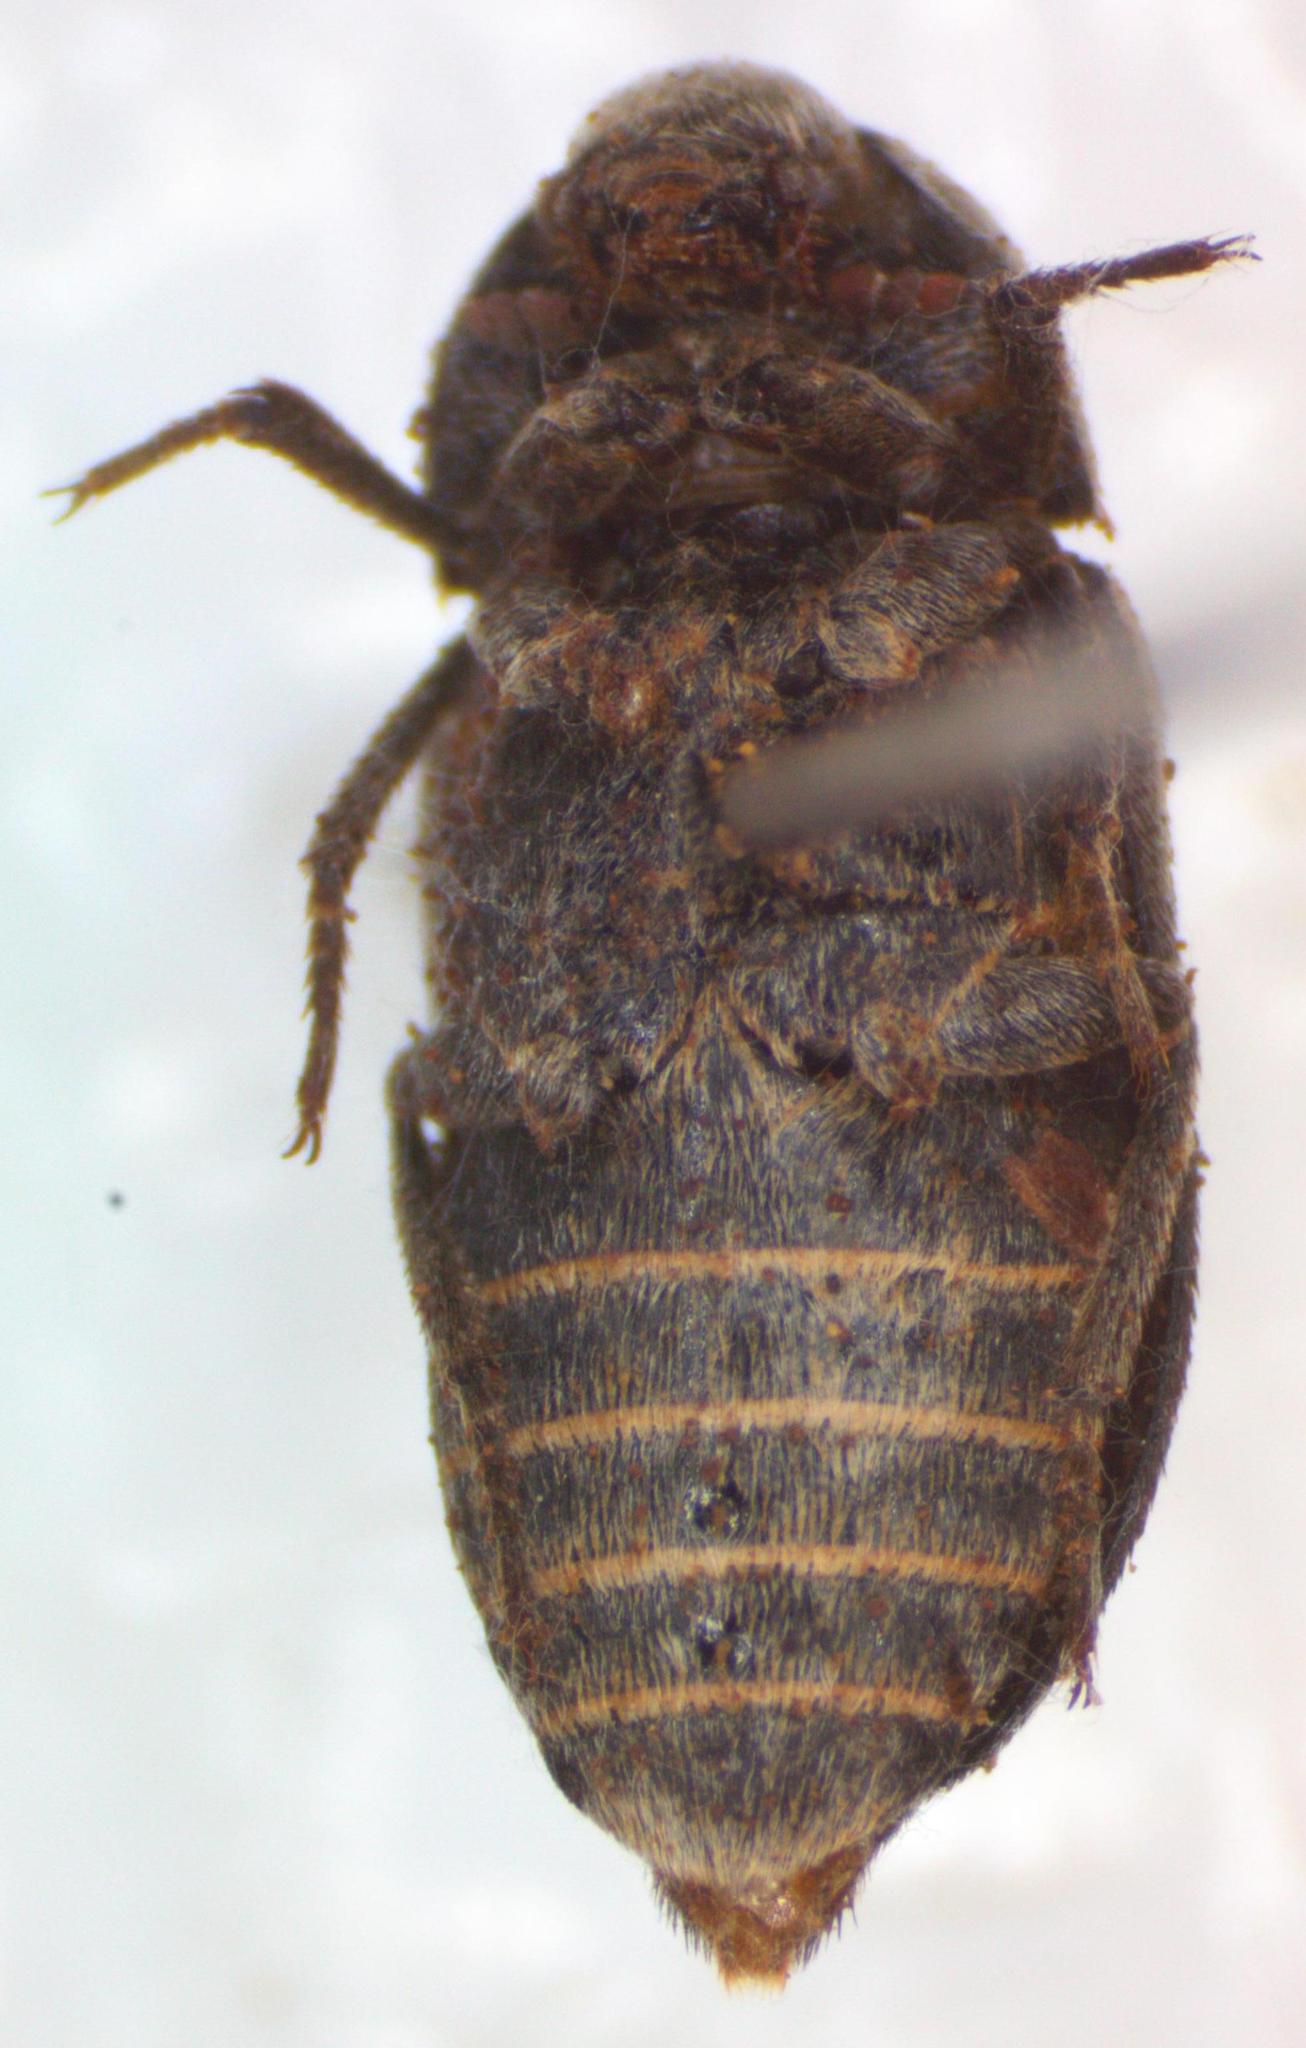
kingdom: Animalia
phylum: Arthropoda
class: Insecta
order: Coleoptera
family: Dermestidae
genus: Dermestes
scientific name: Dermestes carnivorus
